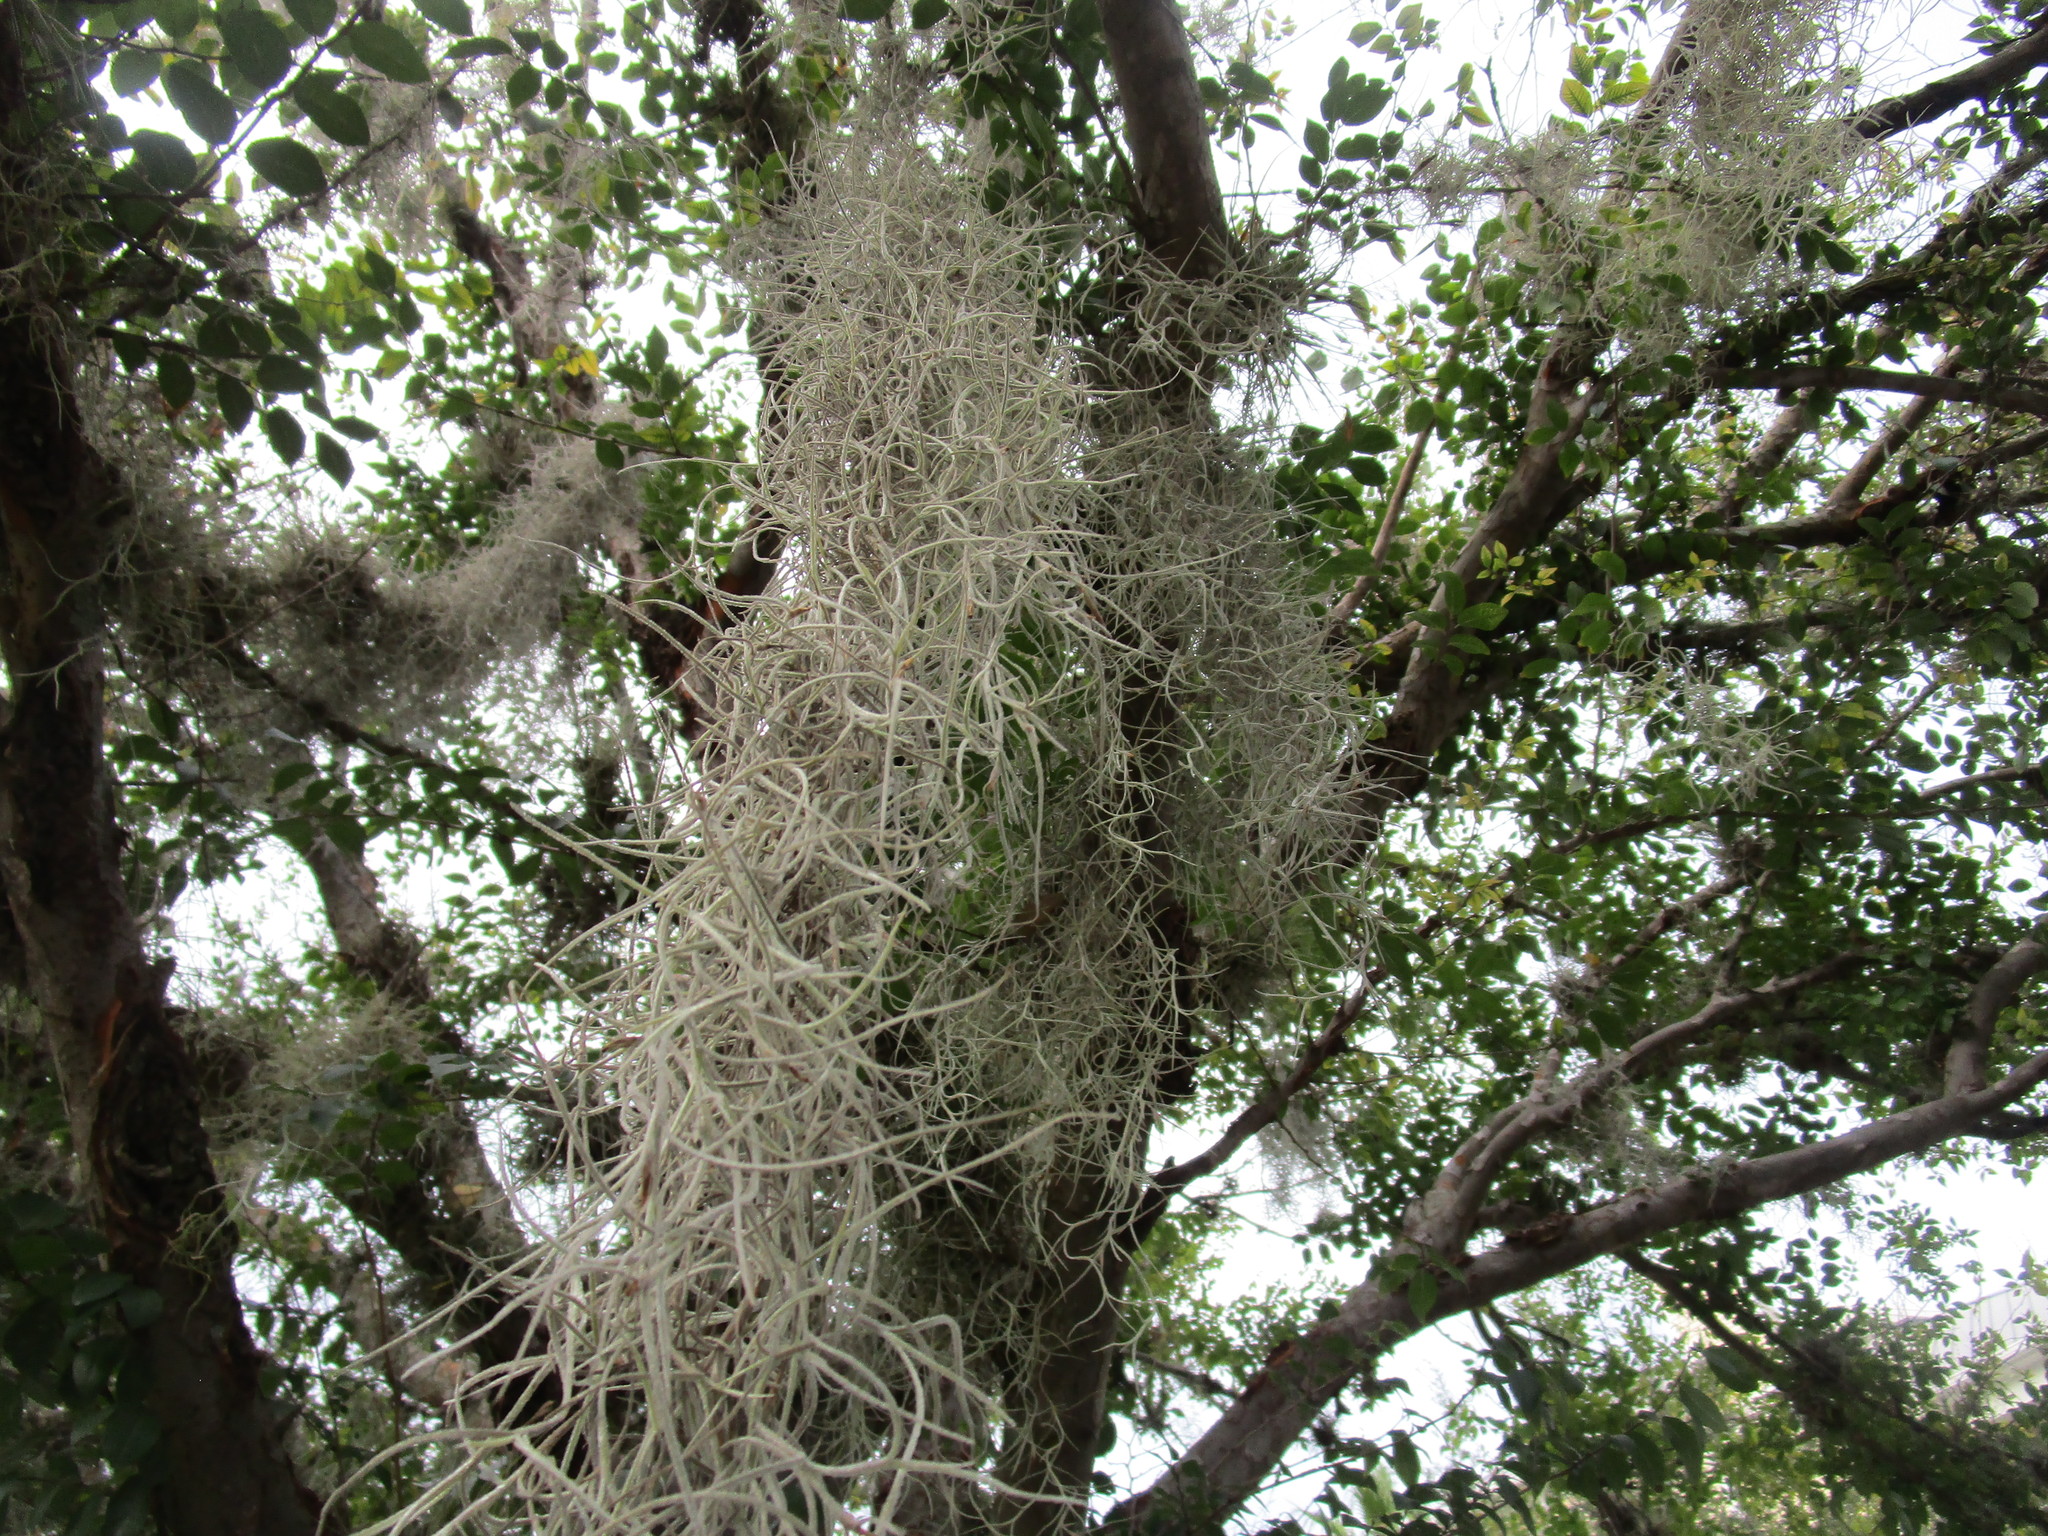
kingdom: Plantae
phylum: Tracheophyta
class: Liliopsida
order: Poales
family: Bromeliaceae
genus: Tillandsia
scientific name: Tillandsia usneoides
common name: Spanish moss
